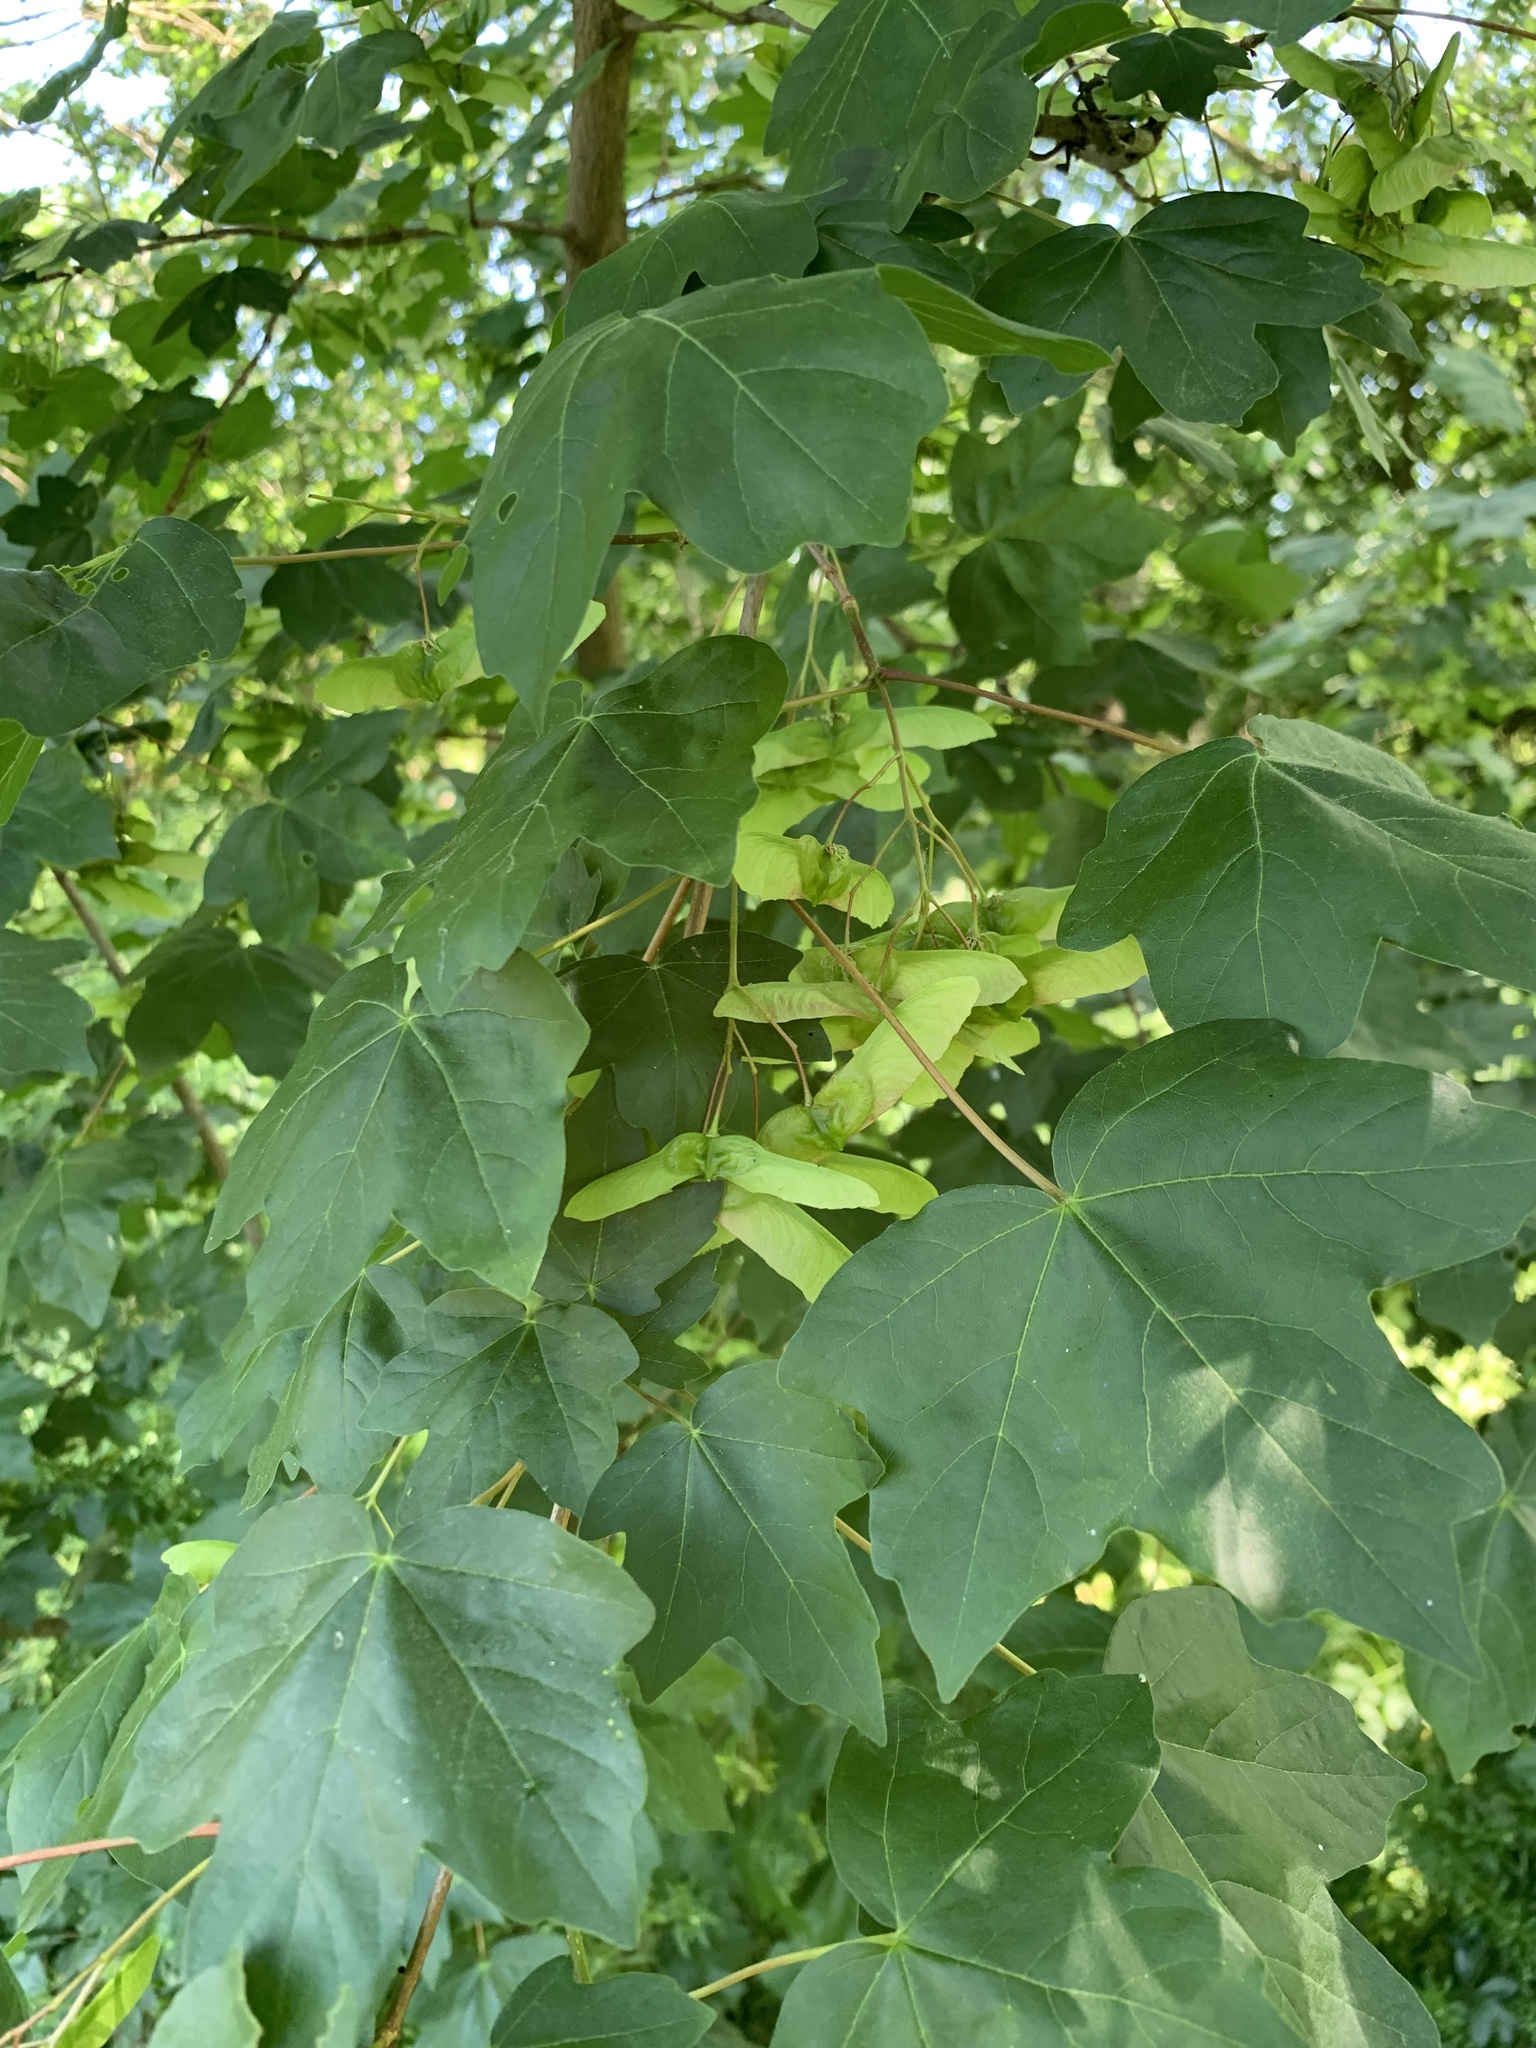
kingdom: Plantae
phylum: Tracheophyta
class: Magnoliopsida
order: Sapindales
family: Sapindaceae
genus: Acer
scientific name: Acer campestre
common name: Field maple
